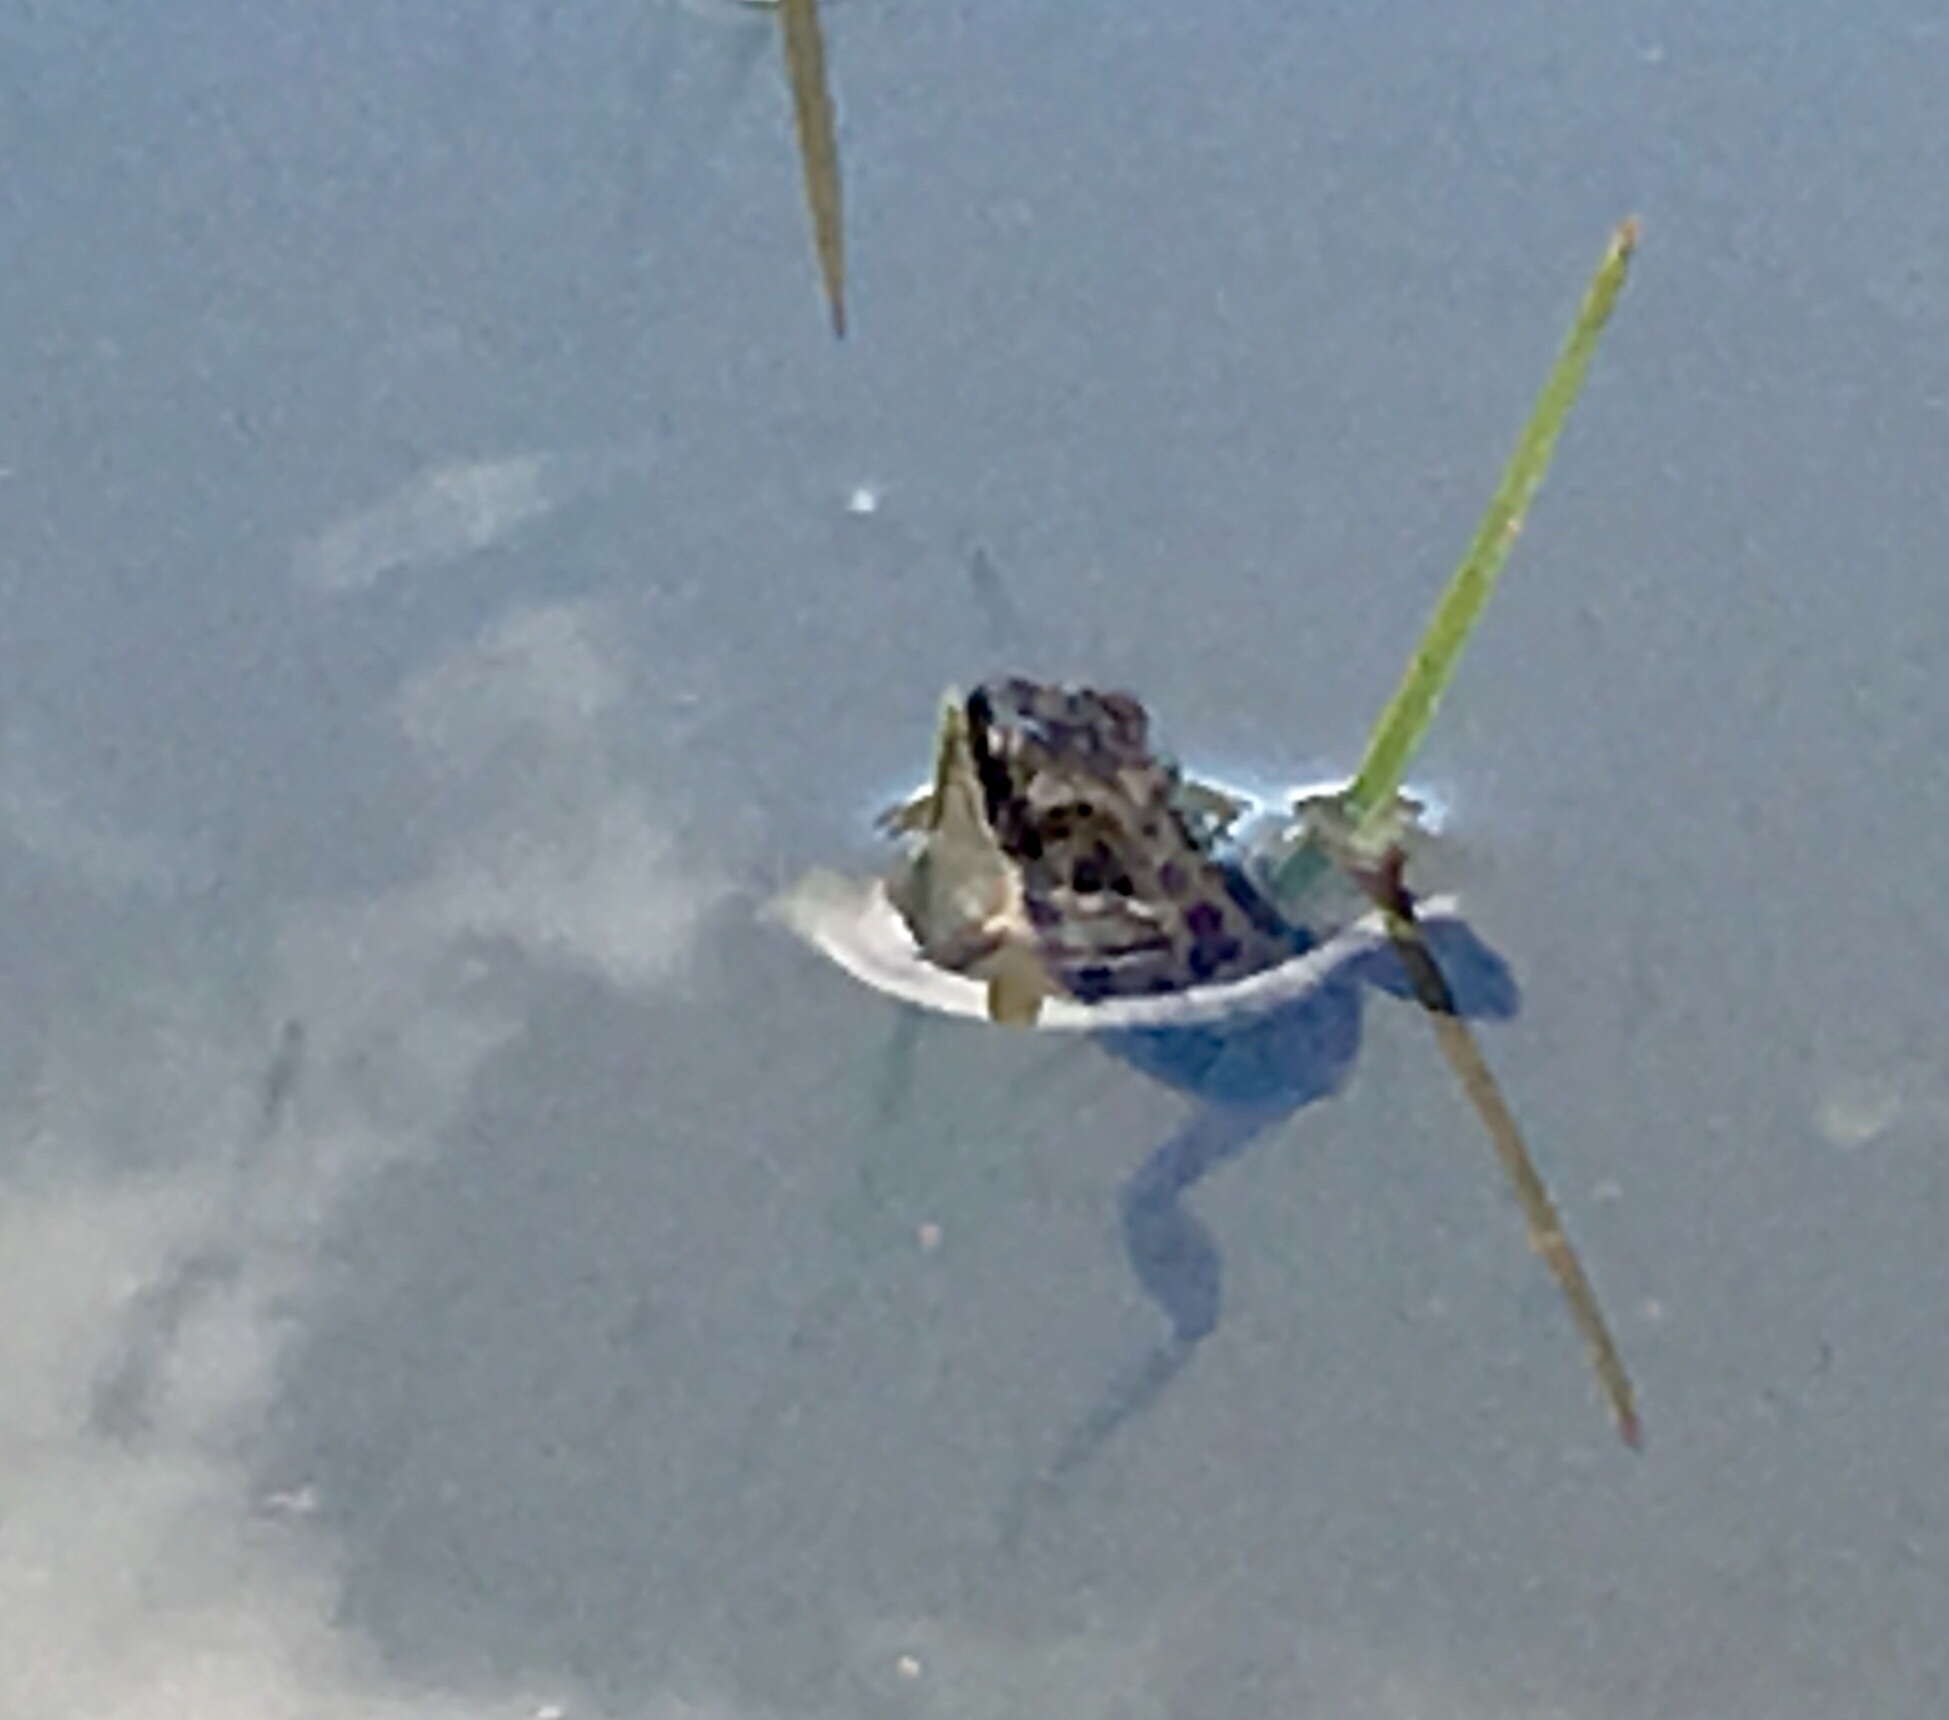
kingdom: Animalia
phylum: Chordata
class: Amphibia
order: Anura
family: Hylidae
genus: Pseudacris
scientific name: Pseudacris maculata
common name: Boreal chorus frog
